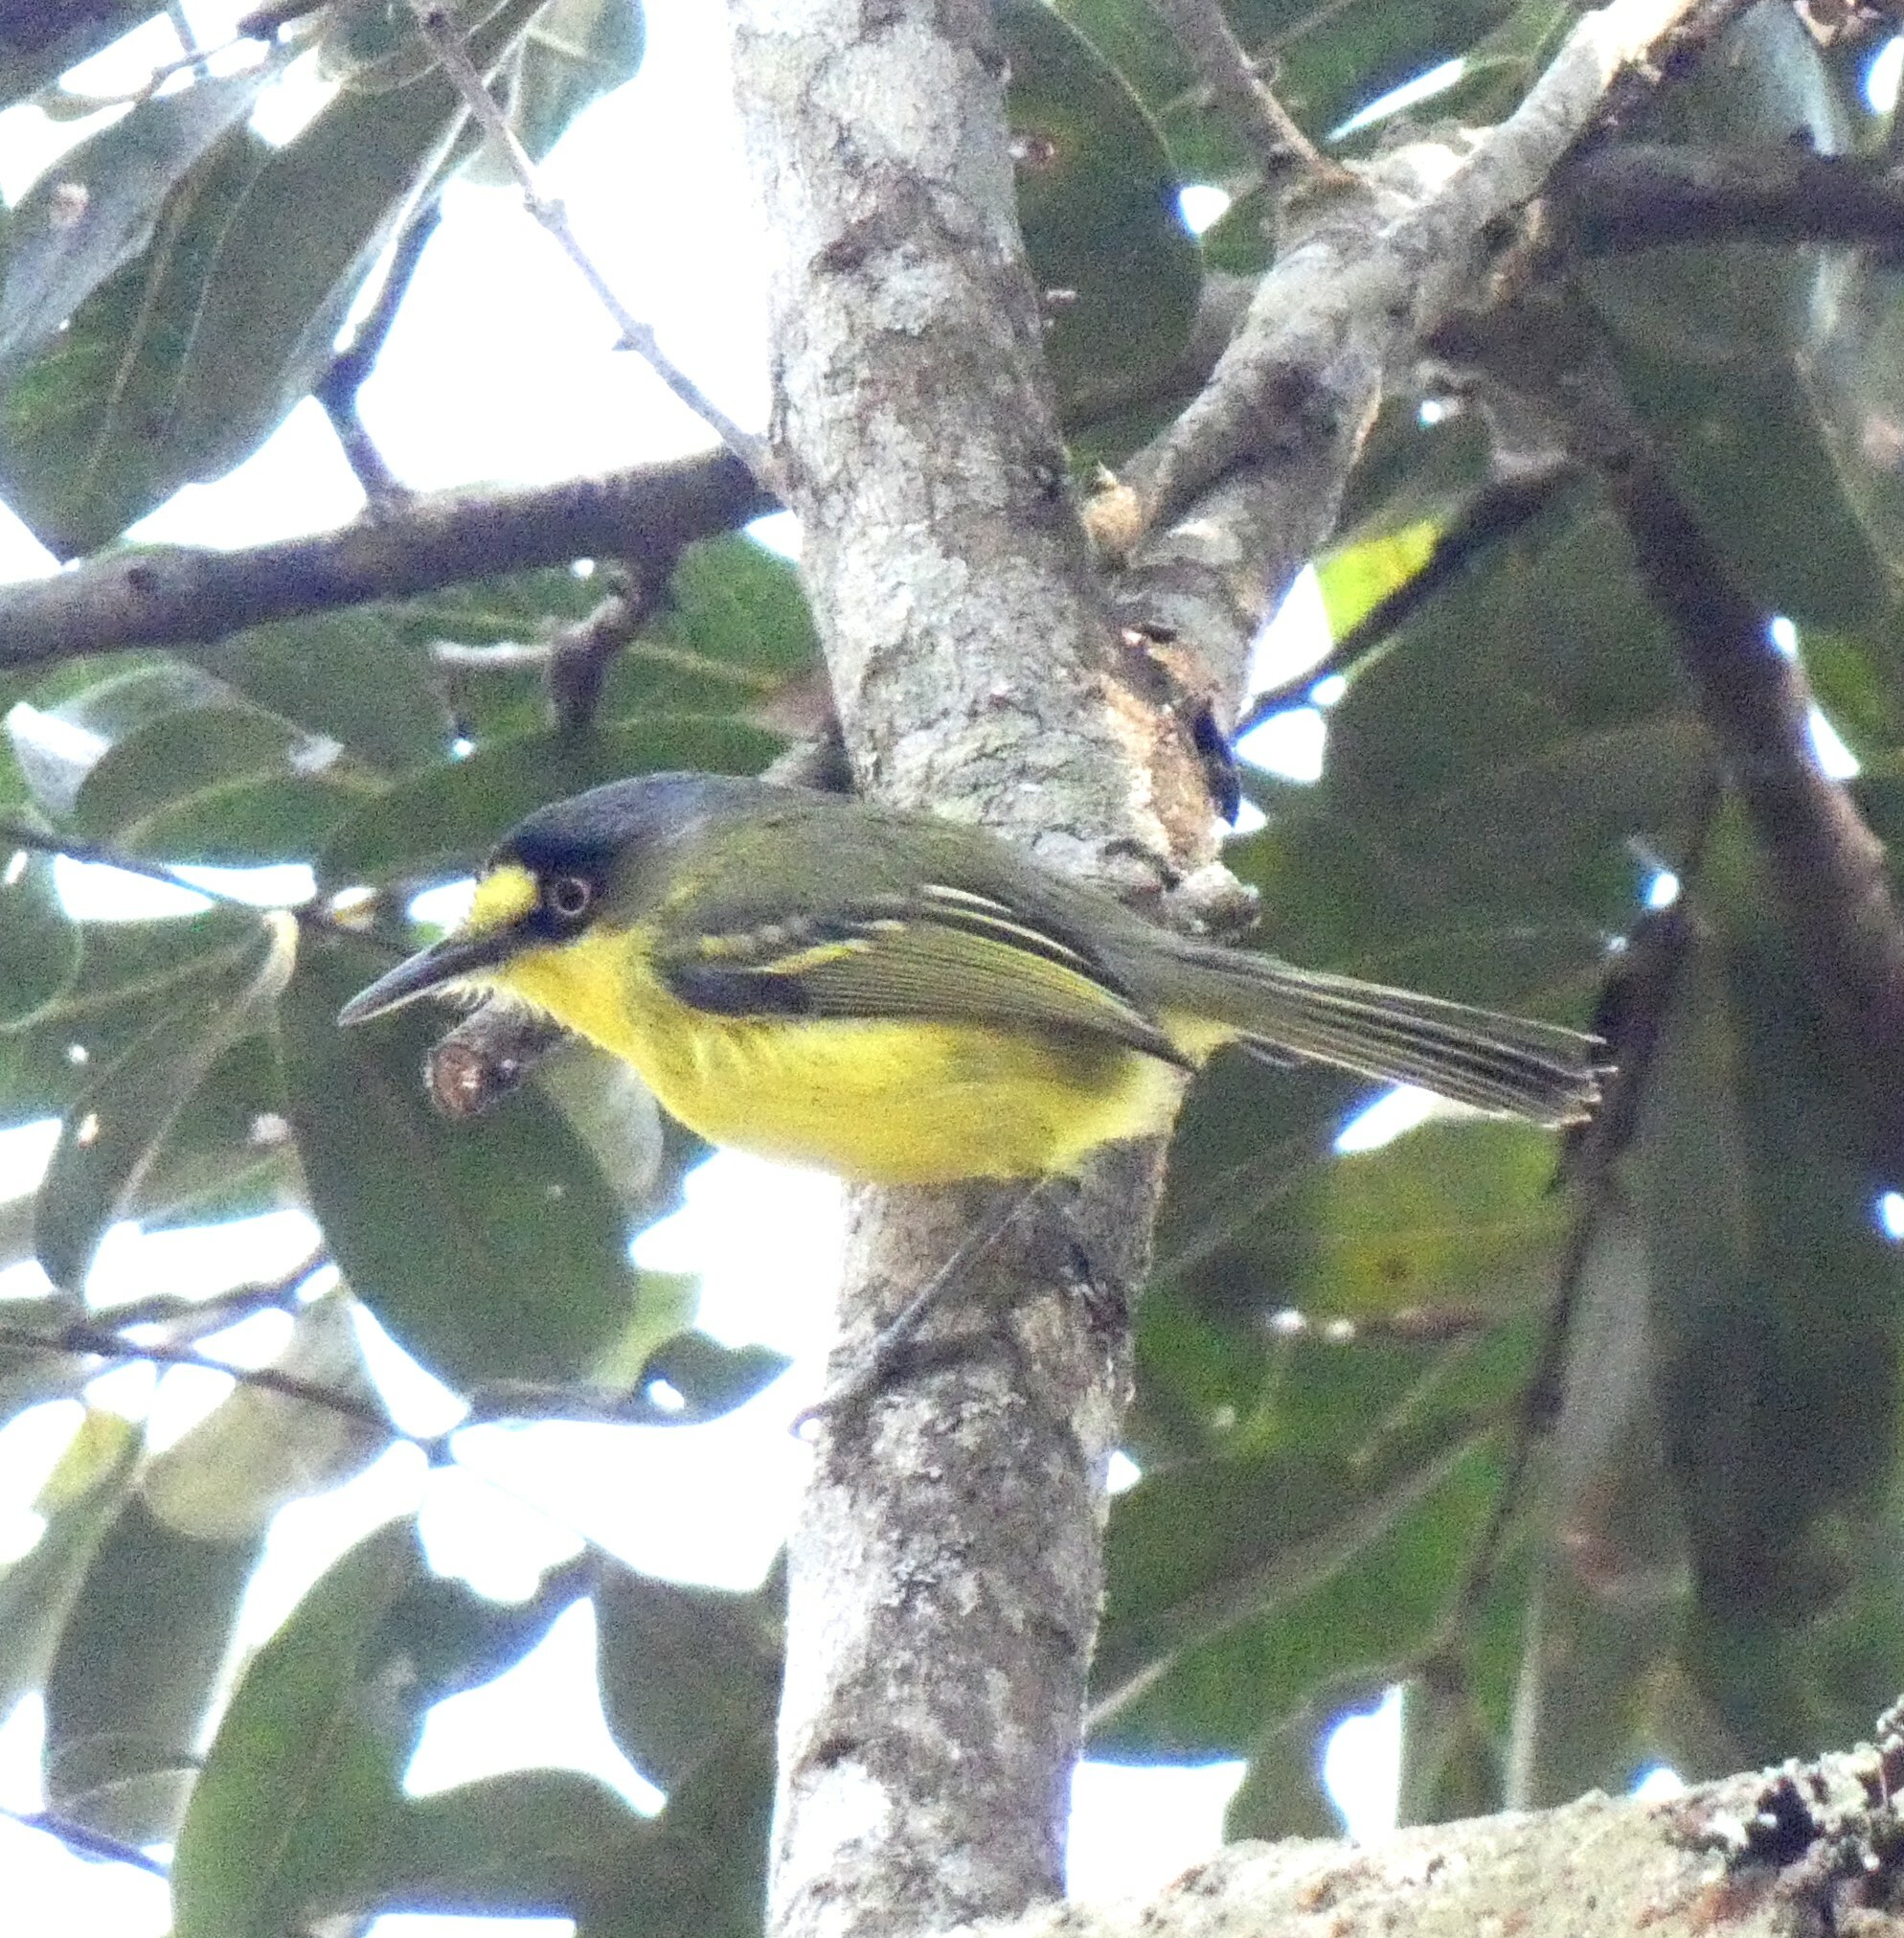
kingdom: Animalia
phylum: Chordata
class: Aves
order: Passeriformes
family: Tyrannidae
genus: Todirostrum
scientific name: Todirostrum poliocephalum
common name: Yellow-lored tody-flycatcher
